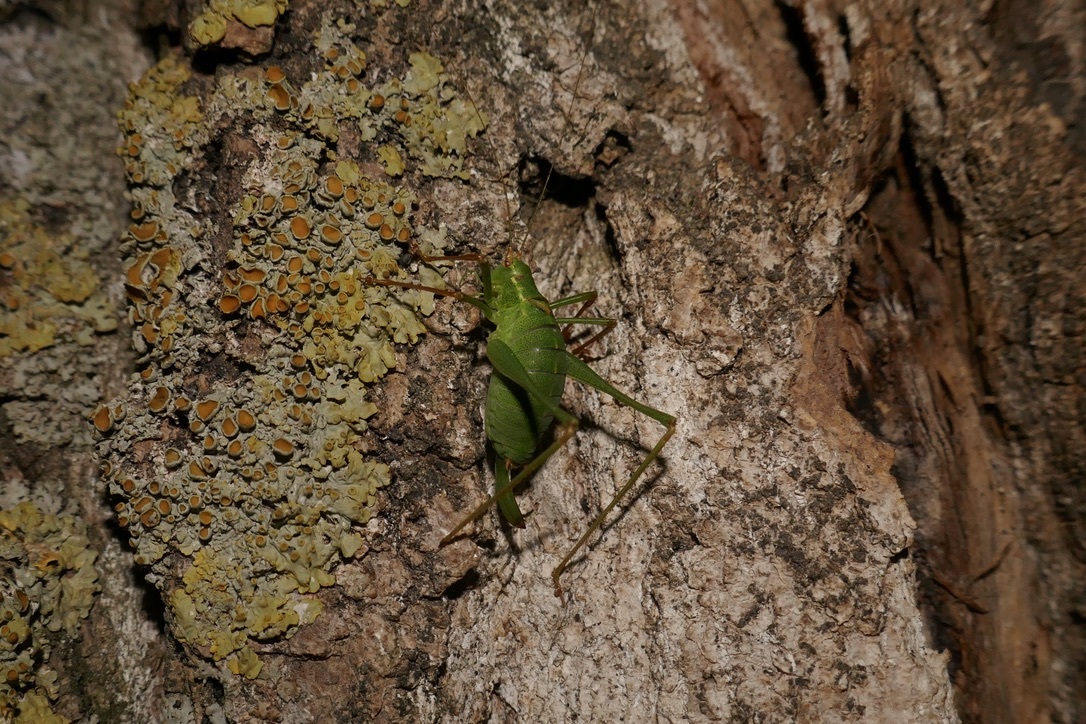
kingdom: Animalia
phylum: Arthropoda
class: Insecta
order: Orthoptera
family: Tettigoniidae
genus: Leptophyes
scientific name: Leptophyes punctatissima
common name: Speckled bush-cricket
